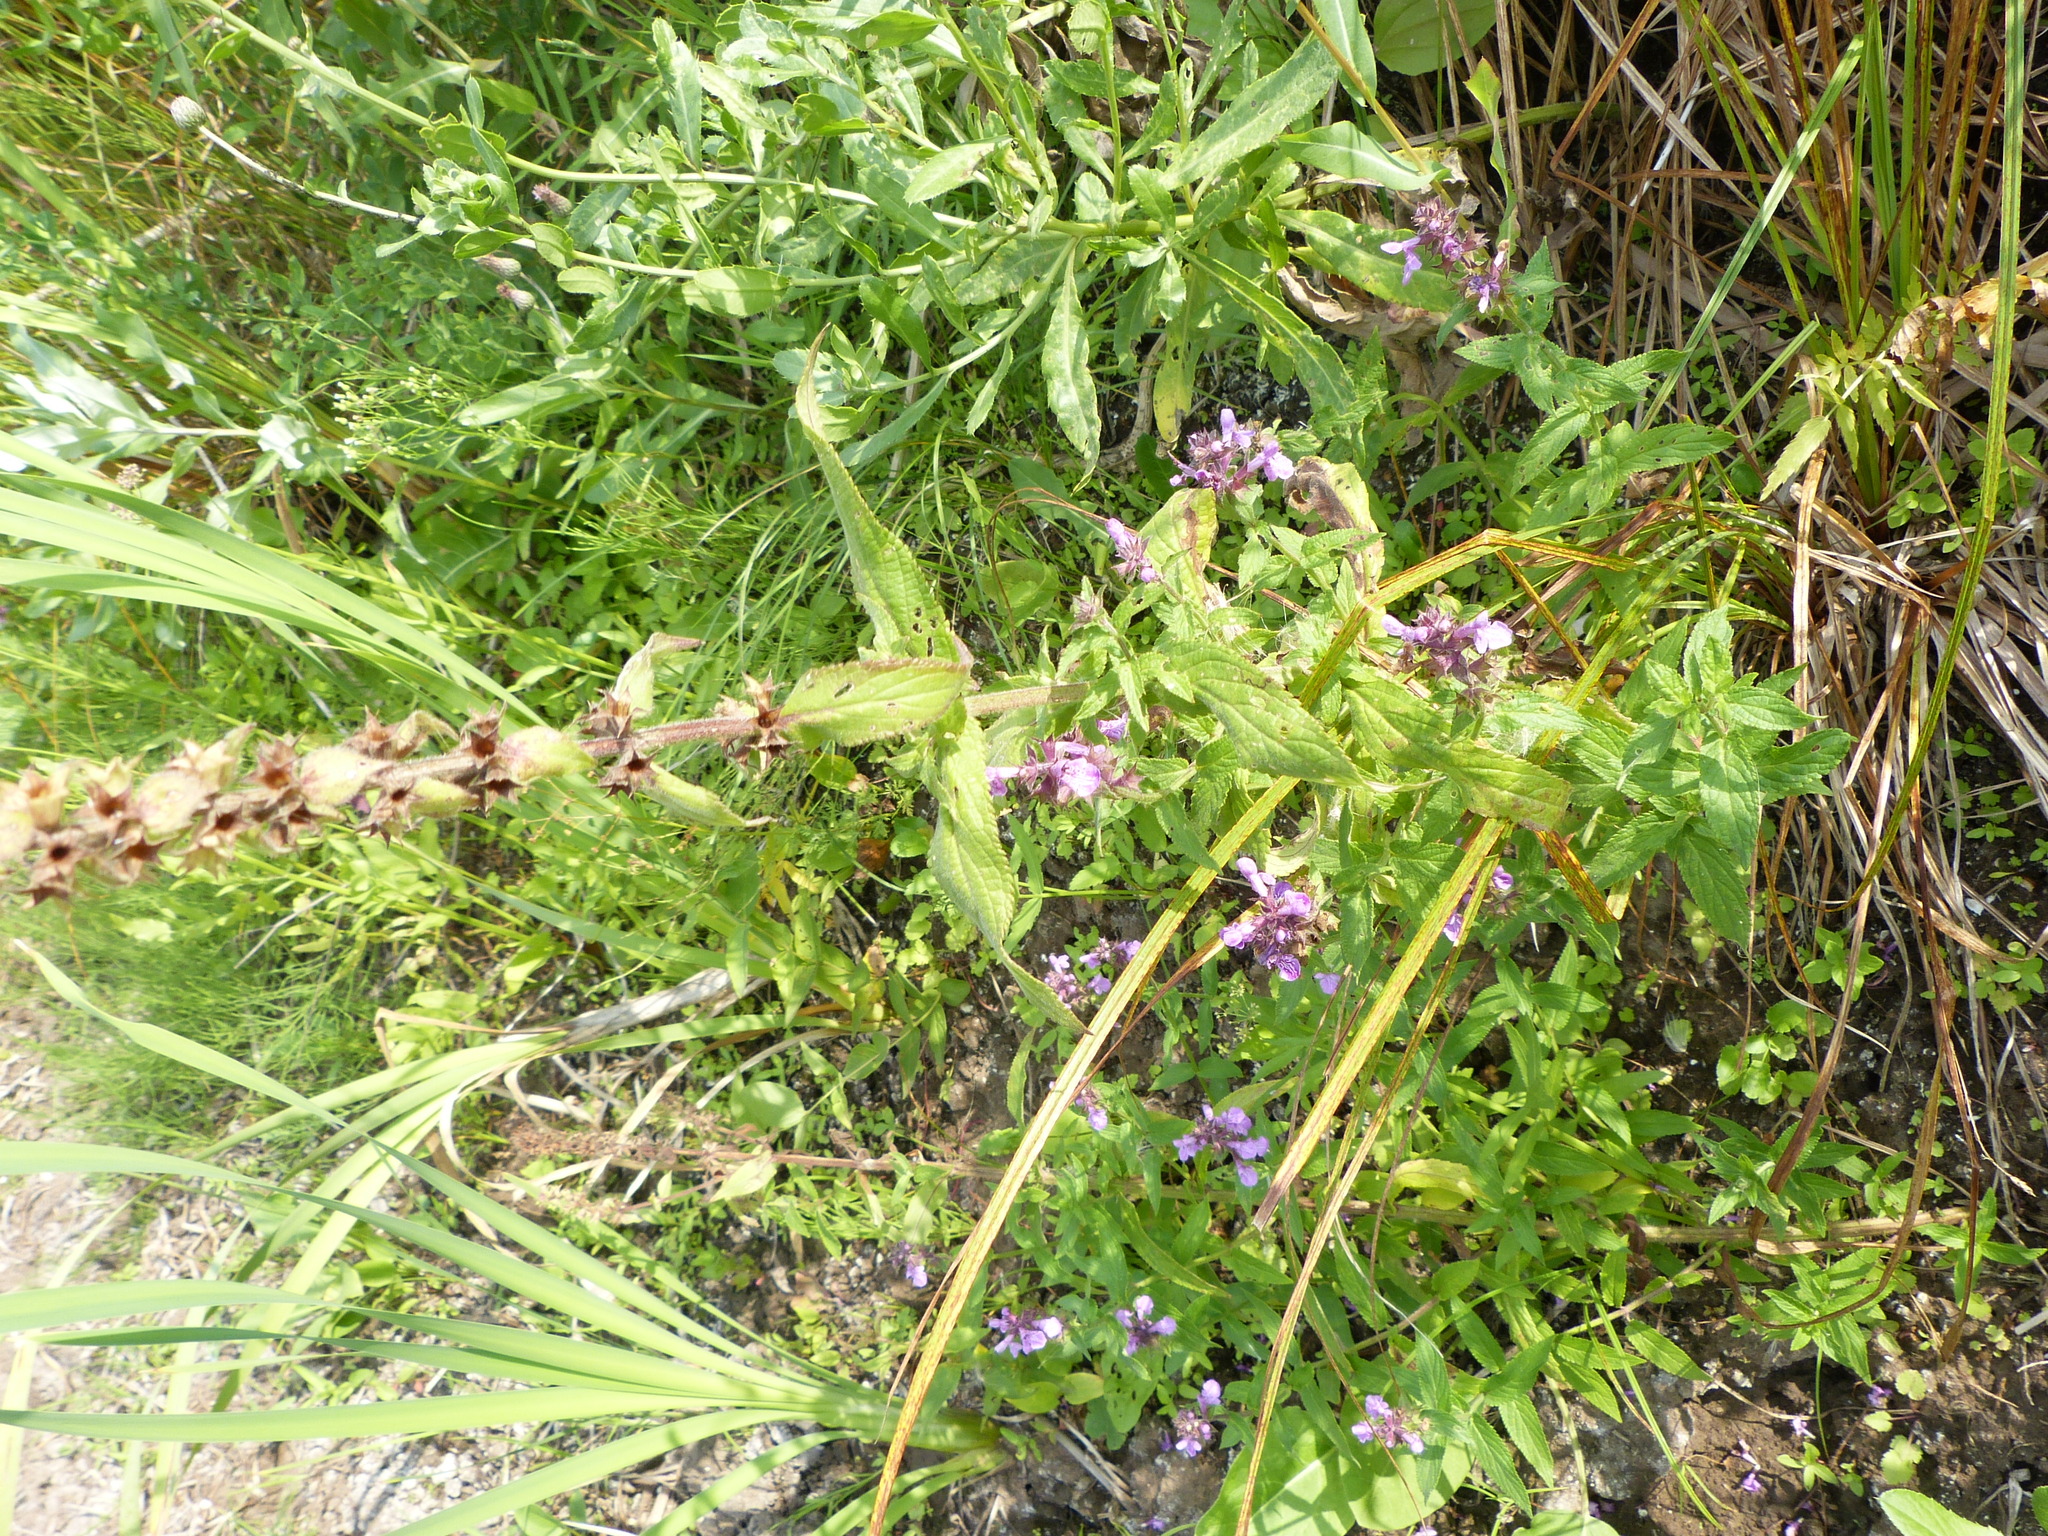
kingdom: Plantae
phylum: Tracheophyta
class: Magnoliopsida
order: Lamiales
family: Lamiaceae
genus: Stachys
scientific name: Stachys palustris
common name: Marsh woundwort
